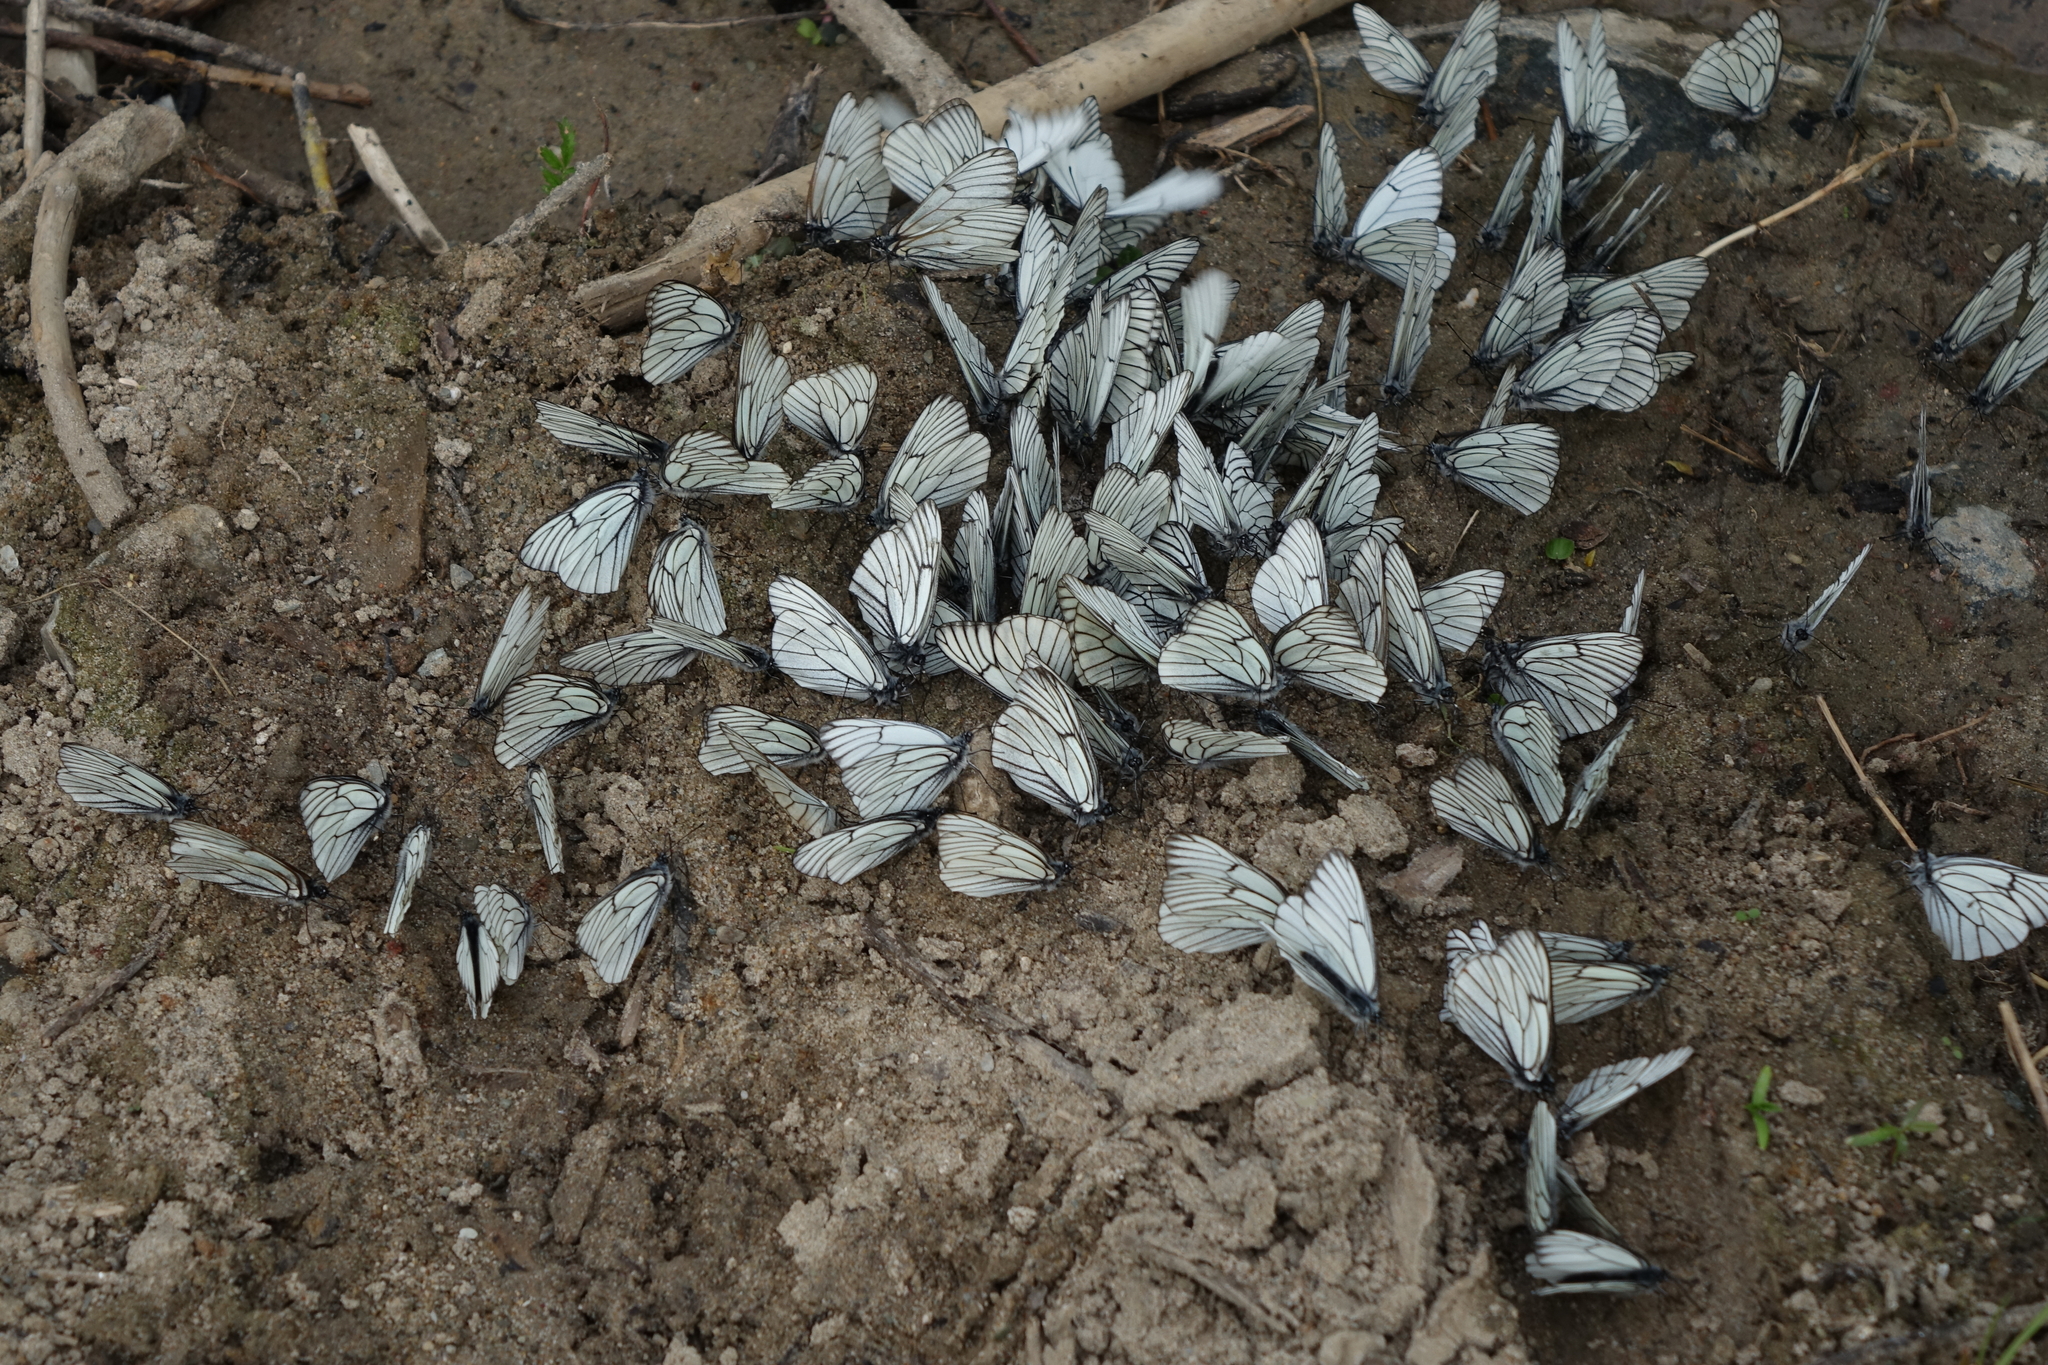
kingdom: Animalia
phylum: Arthropoda
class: Insecta
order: Lepidoptera
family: Pieridae
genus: Aporia
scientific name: Aporia crataegi
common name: Black-veined white
